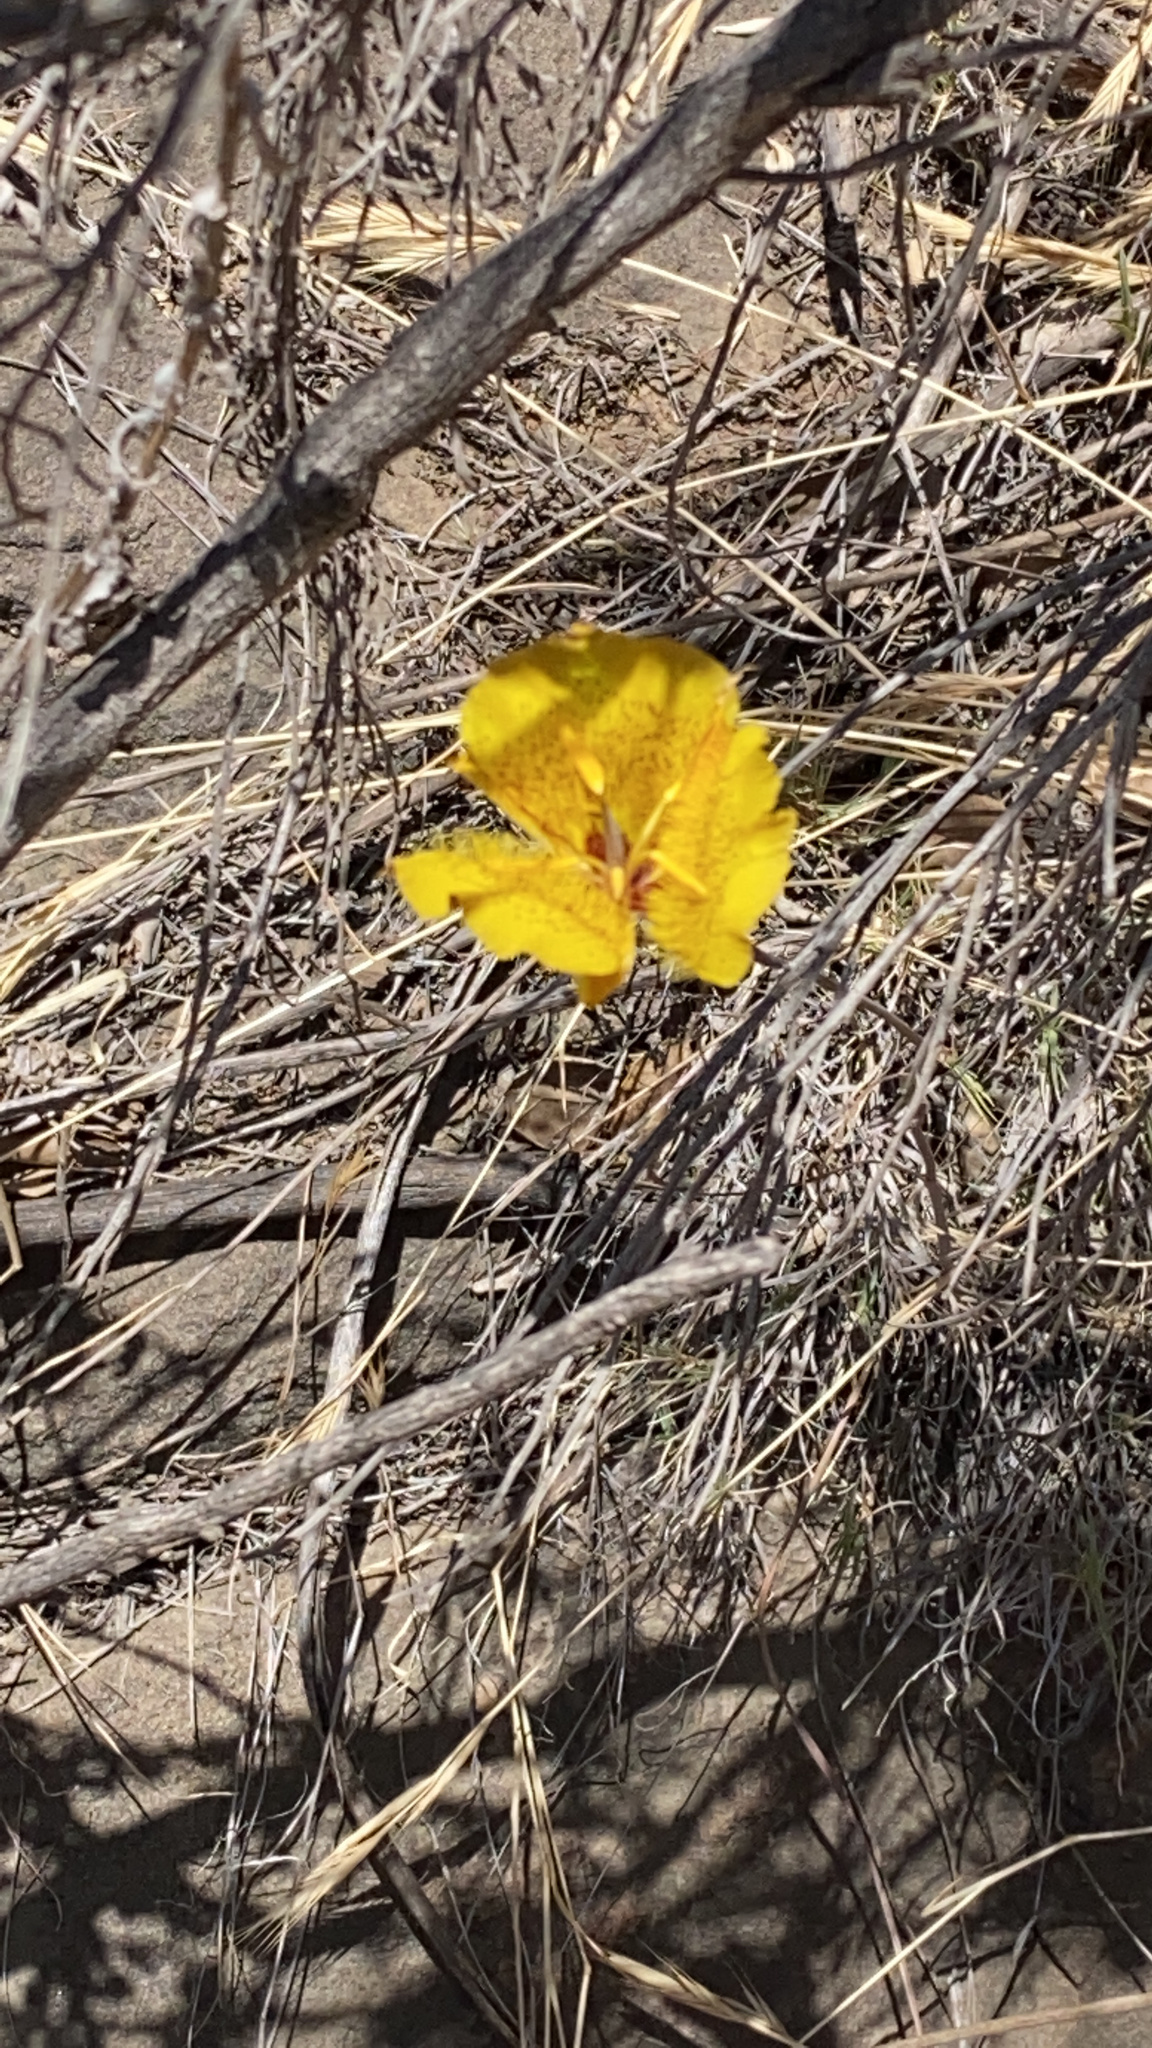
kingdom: Plantae
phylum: Tracheophyta
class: Liliopsida
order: Liliales
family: Liliaceae
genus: Calochortus
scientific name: Calochortus weedii
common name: Weed's mariposa-lily
